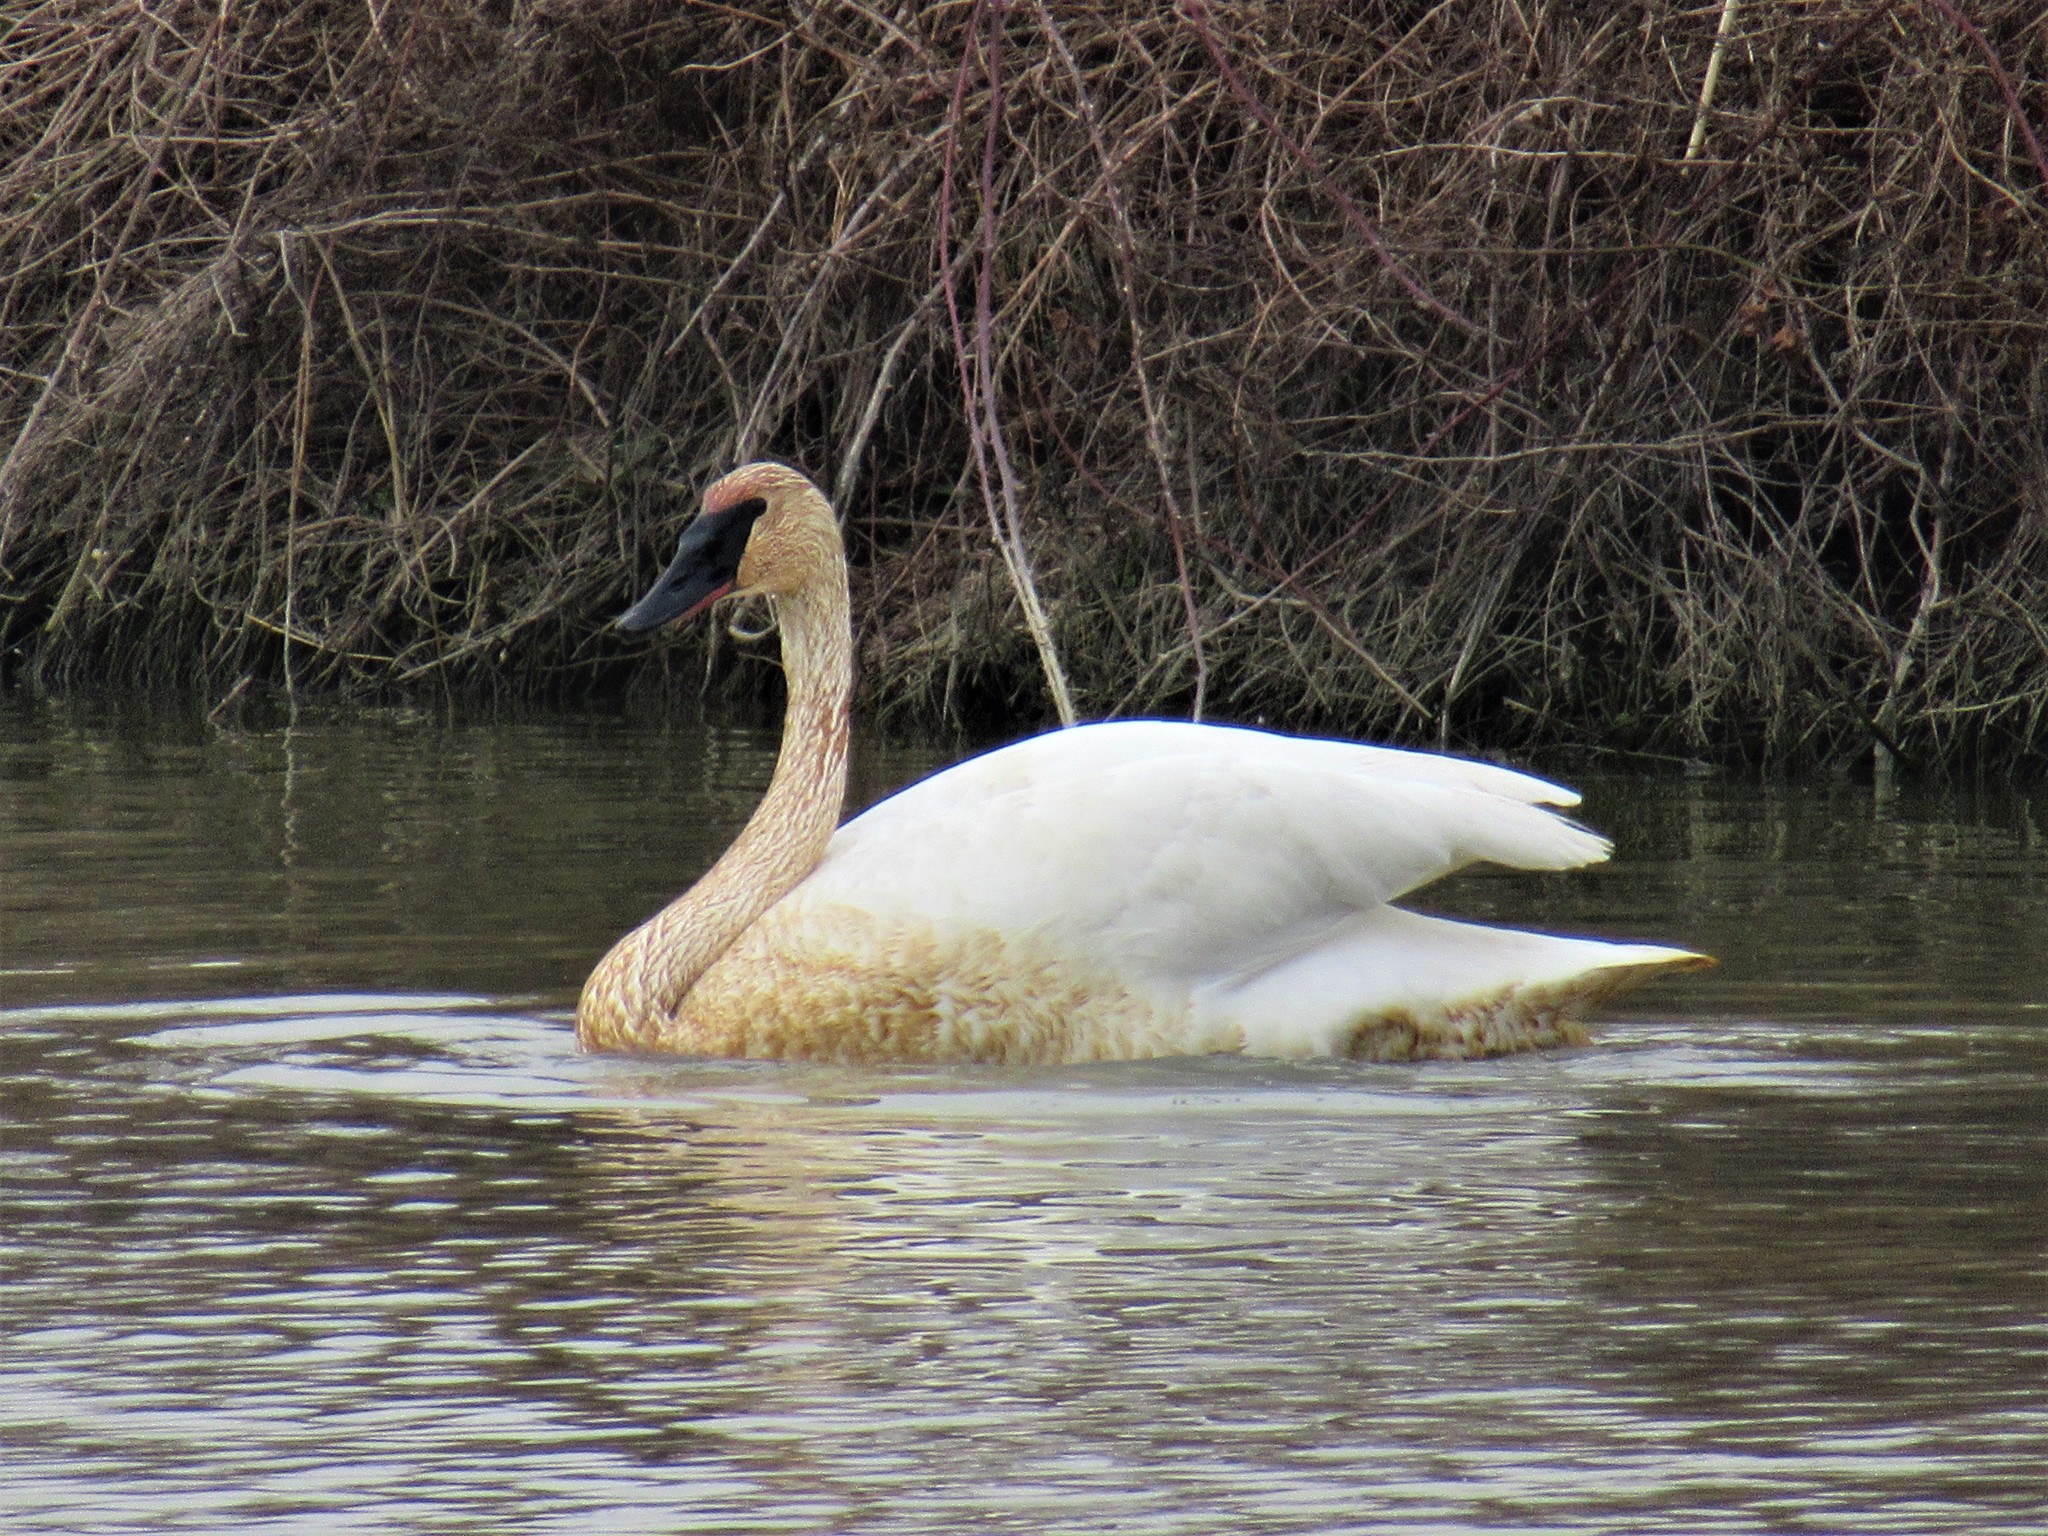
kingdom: Animalia
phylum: Chordata
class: Aves
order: Anseriformes
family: Anatidae
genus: Cygnus
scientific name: Cygnus buccinator
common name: Trumpeter swan
